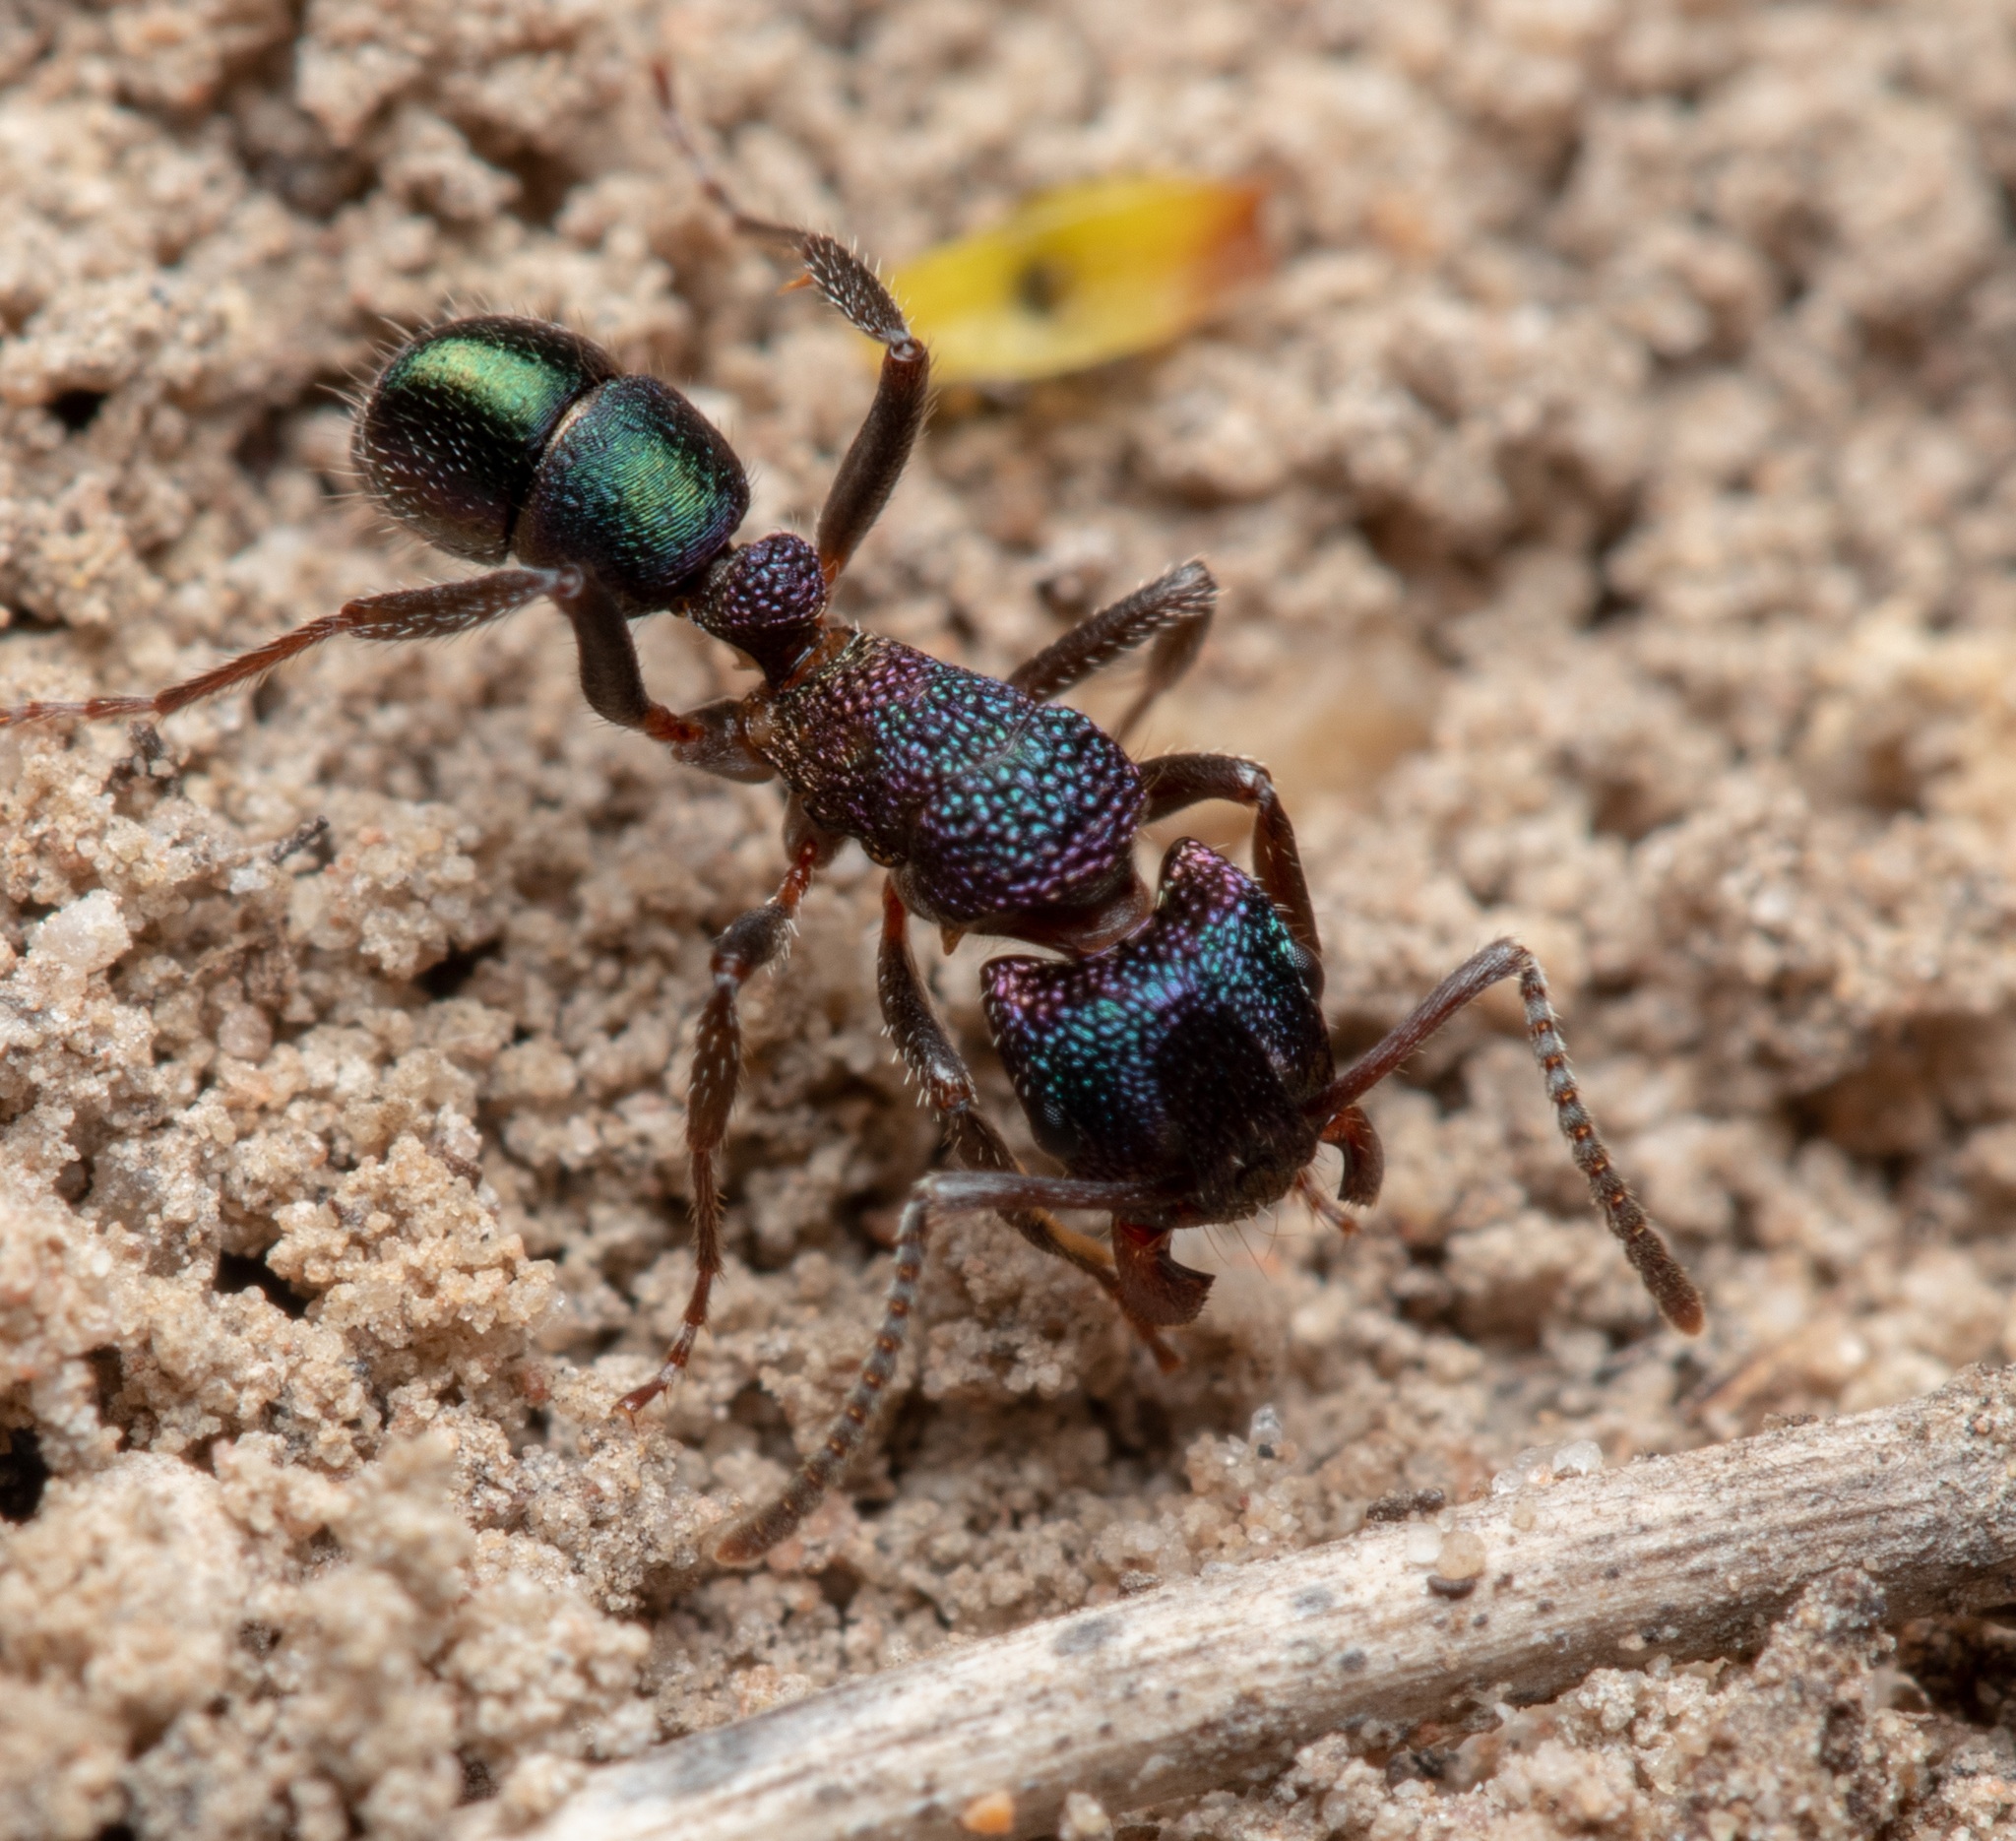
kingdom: Animalia
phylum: Arthropoda
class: Insecta
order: Hymenoptera
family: Formicidae
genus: Rhytidoponera
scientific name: Rhytidoponera metallica
